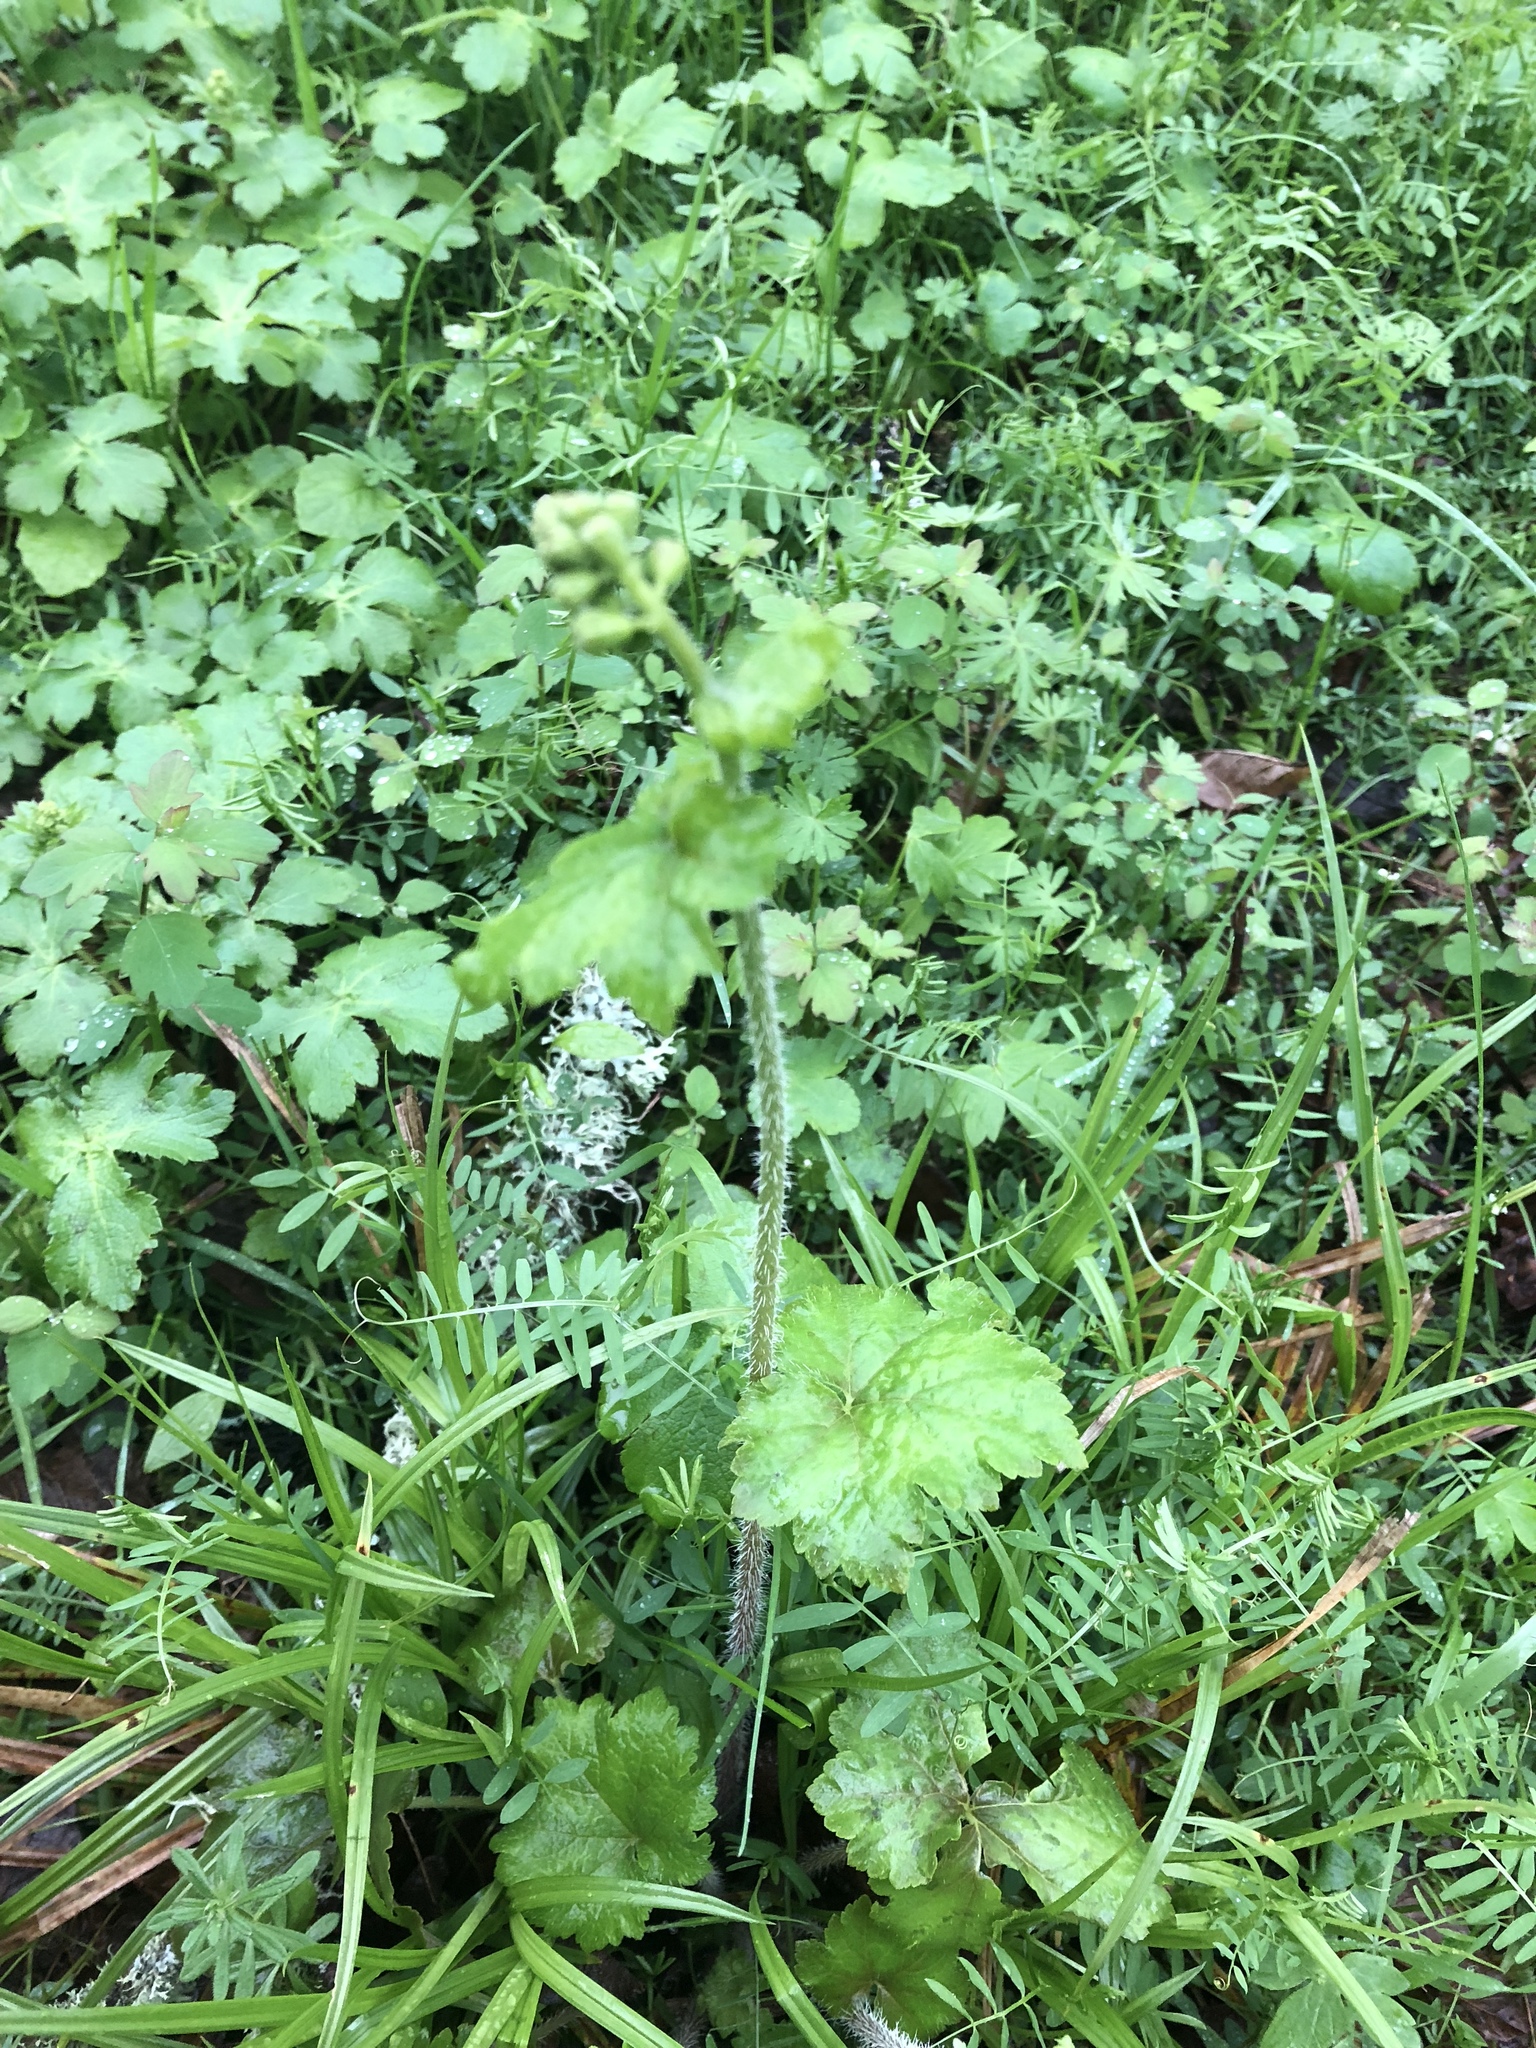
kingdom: Plantae
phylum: Tracheophyta
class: Magnoliopsida
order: Saxifragales
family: Saxifragaceae
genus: Tellima
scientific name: Tellima grandiflora
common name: Fringecups
